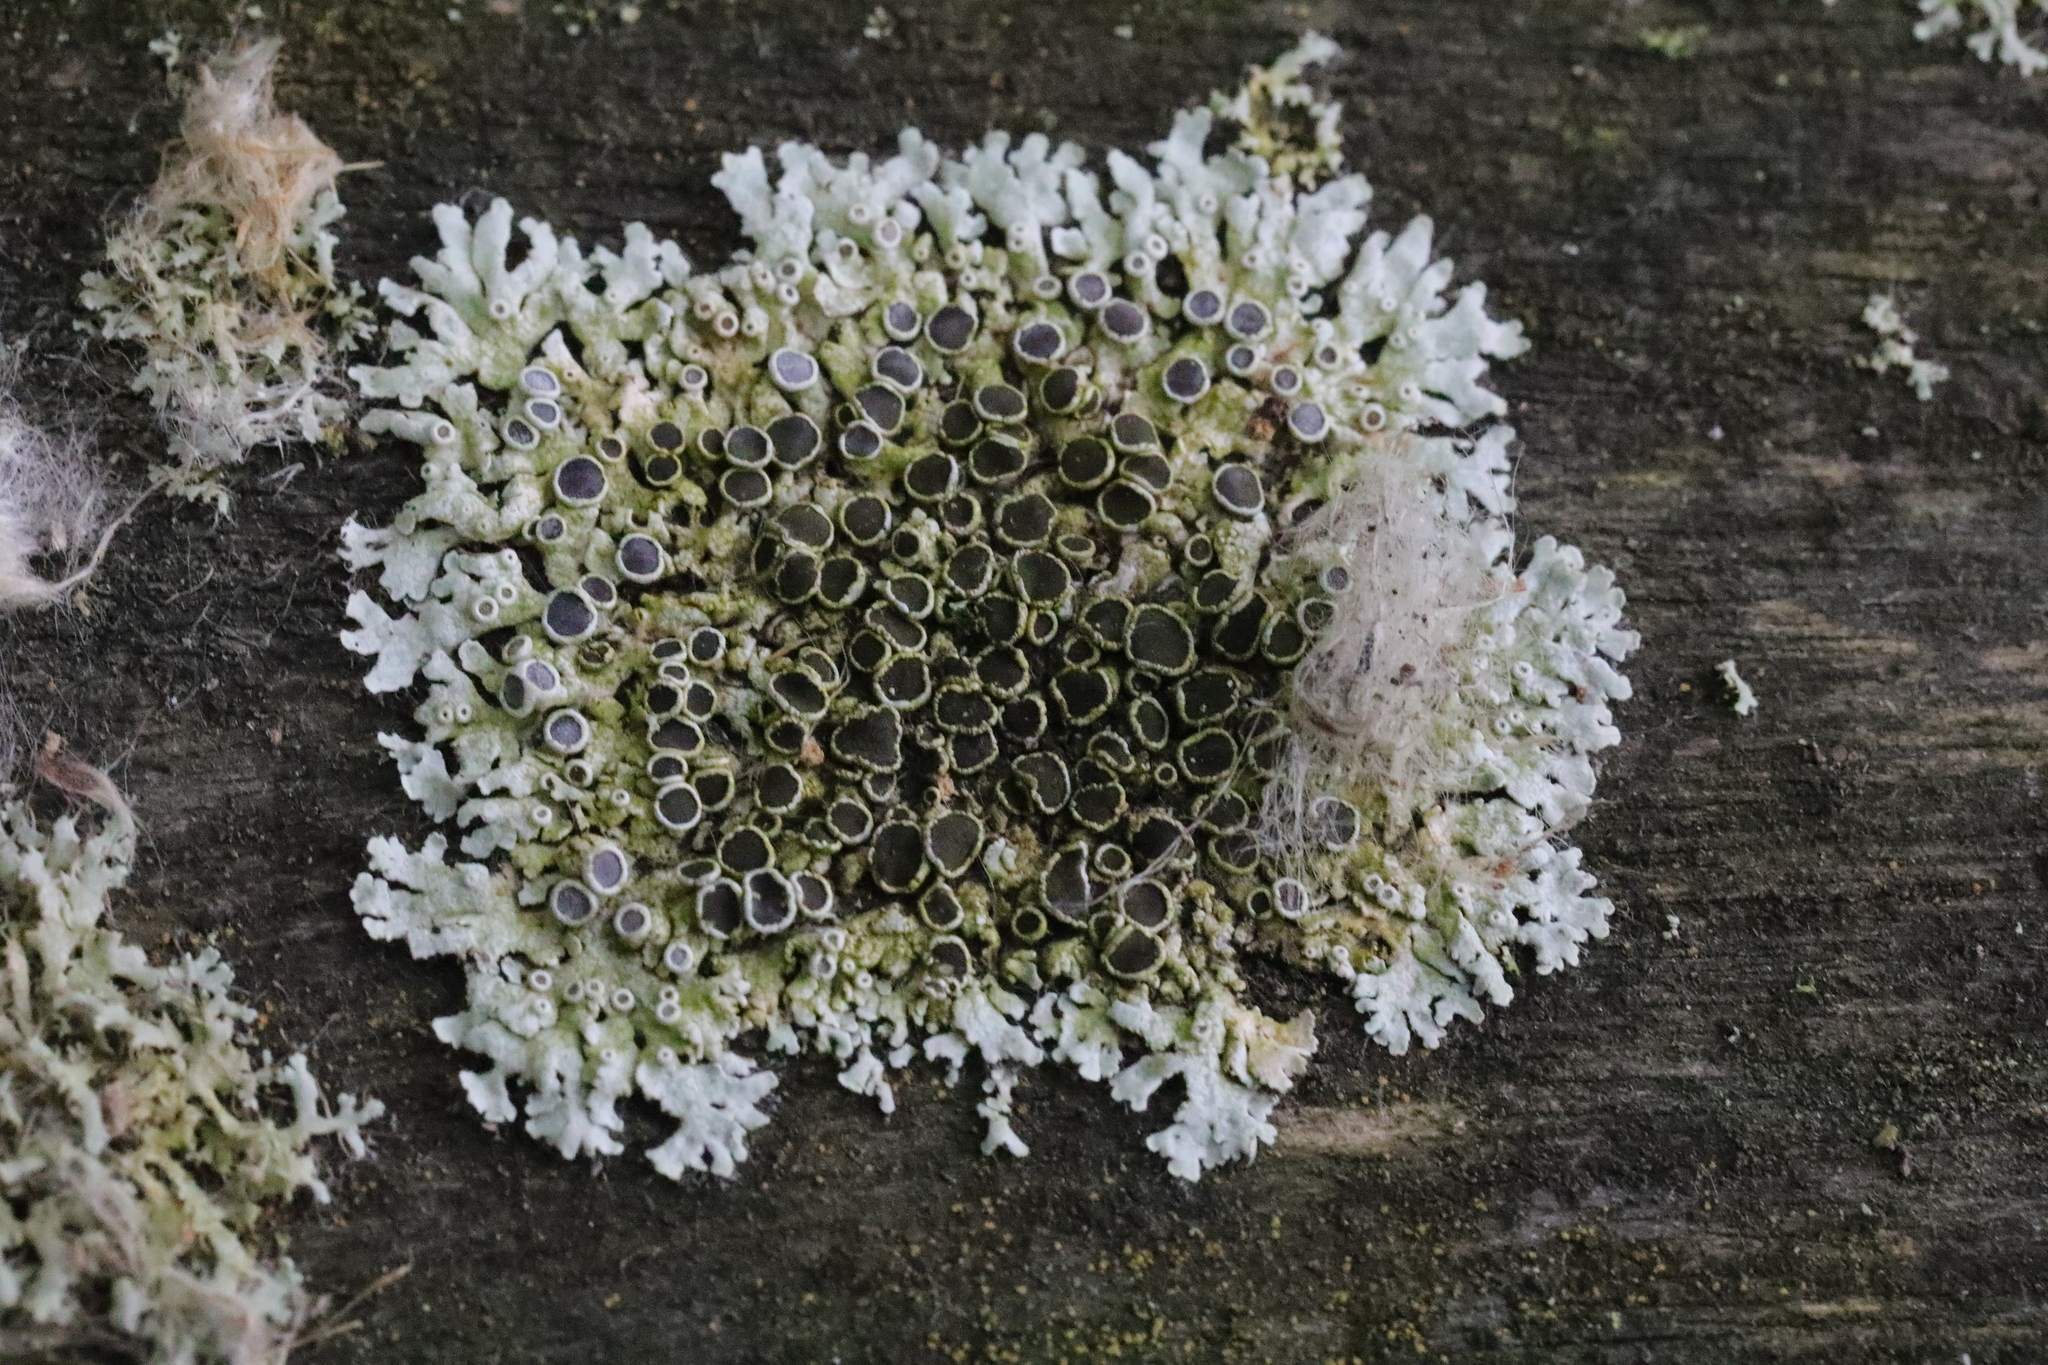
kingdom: Fungi
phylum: Ascomycota
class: Lecanoromycetes
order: Caliciales
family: Physciaceae
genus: Physcia
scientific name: Physcia aipolia
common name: Hoary rosette lichen
